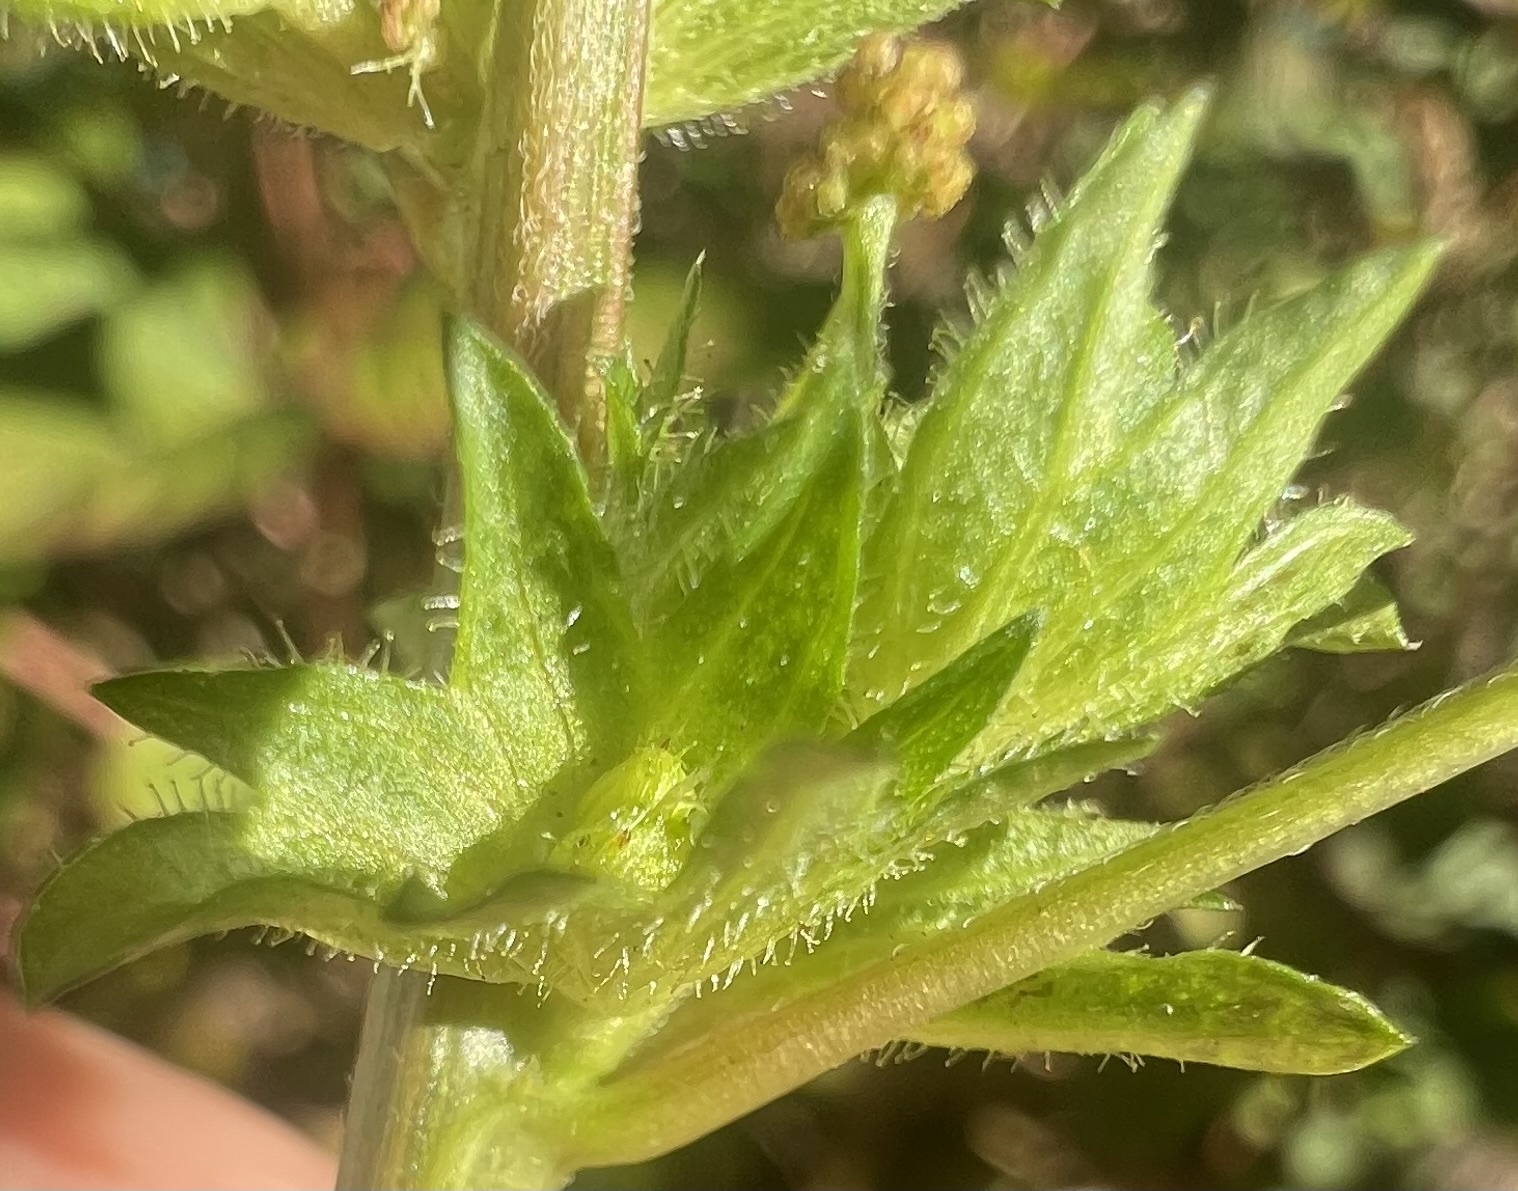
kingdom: Plantae
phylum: Tracheophyta
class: Magnoliopsida
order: Malpighiales
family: Euphorbiaceae
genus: Acalypha
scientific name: Acalypha rhomboidea
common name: Rhombic copperleaf
